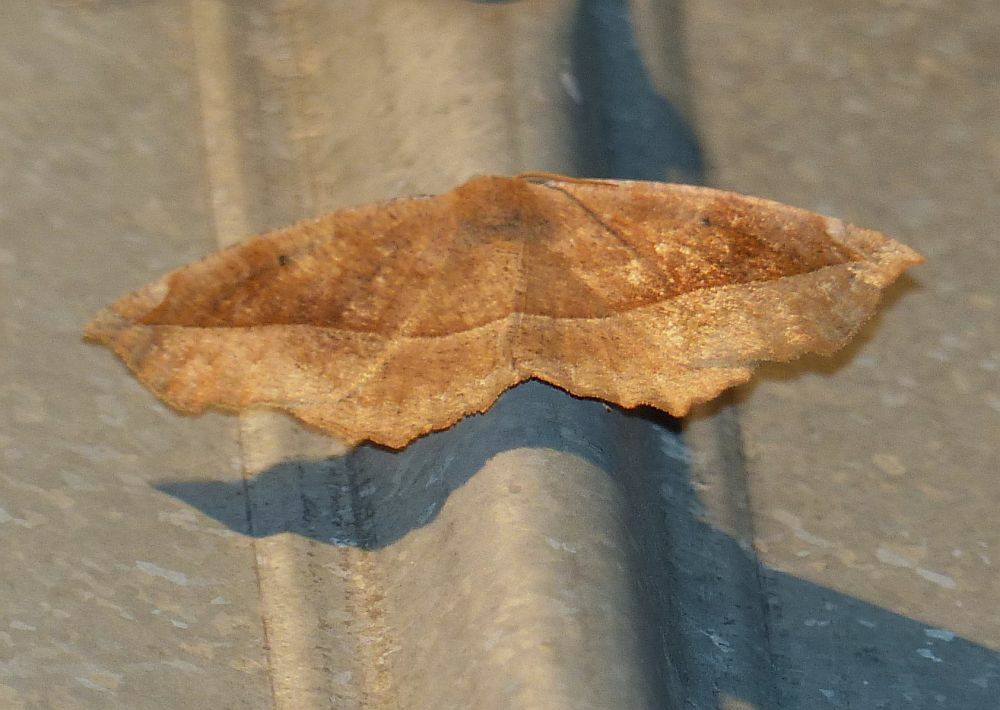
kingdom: Animalia
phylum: Arthropoda
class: Insecta
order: Lepidoptera
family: Geometridae
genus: Eutrapela
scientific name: Eutrapela clemataria
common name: Curved-toothed geometer
